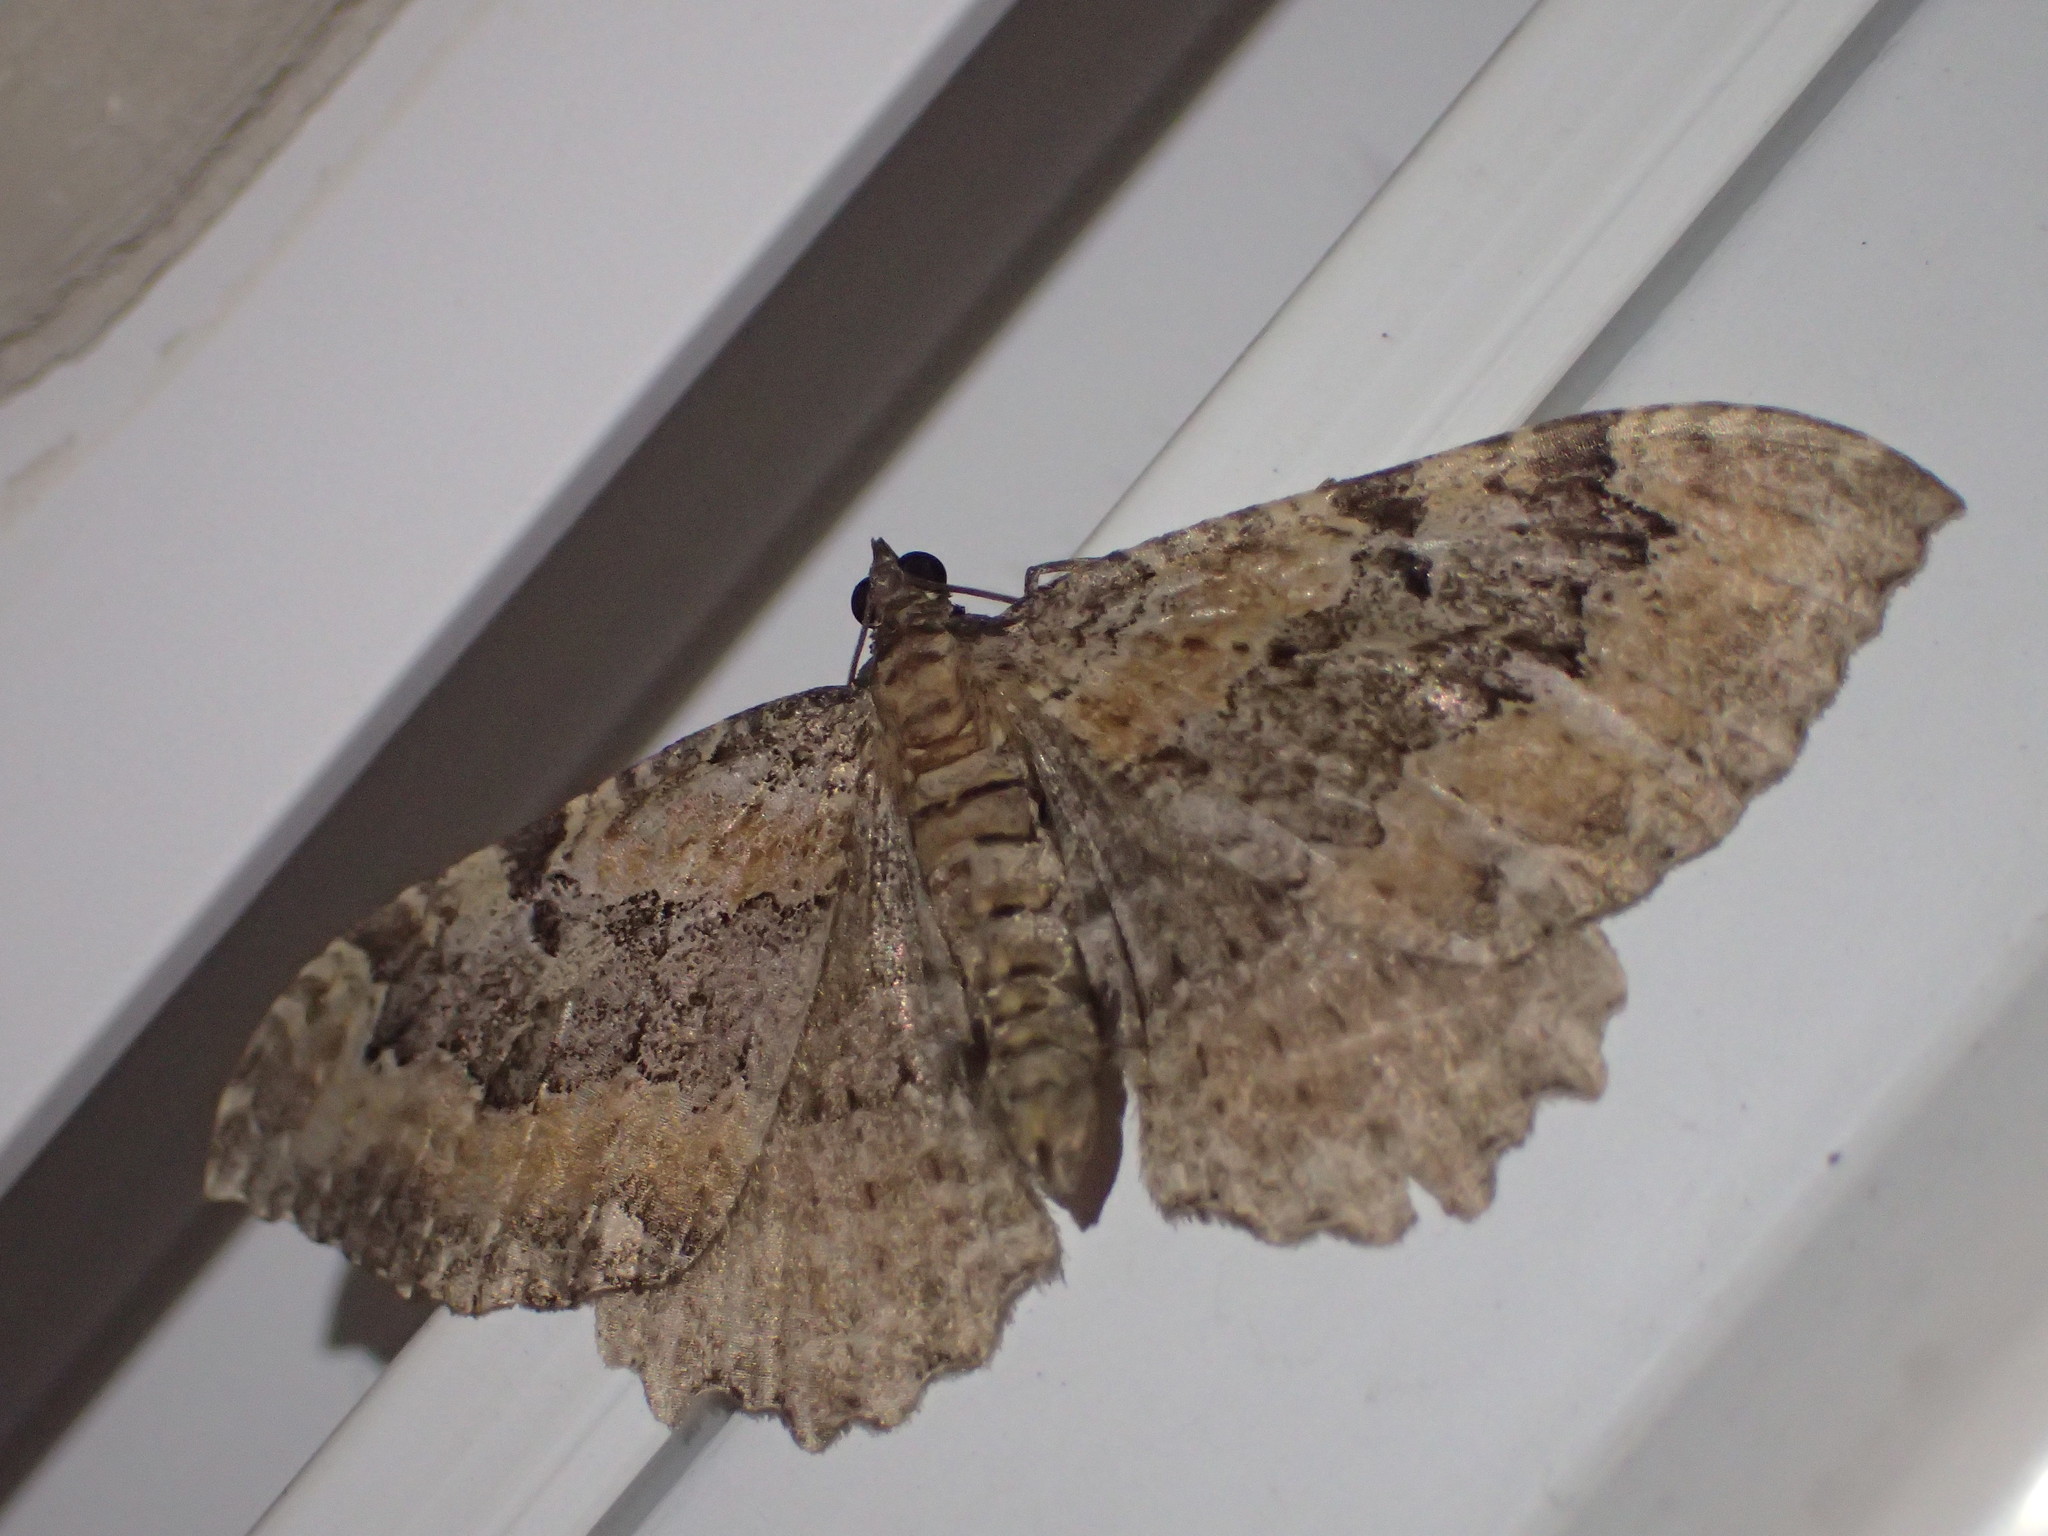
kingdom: Animalia
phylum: Arthropoda
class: Insecta
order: Lepidoptera
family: Geometridae
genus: Rheumaptera
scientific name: Rheumaptera
